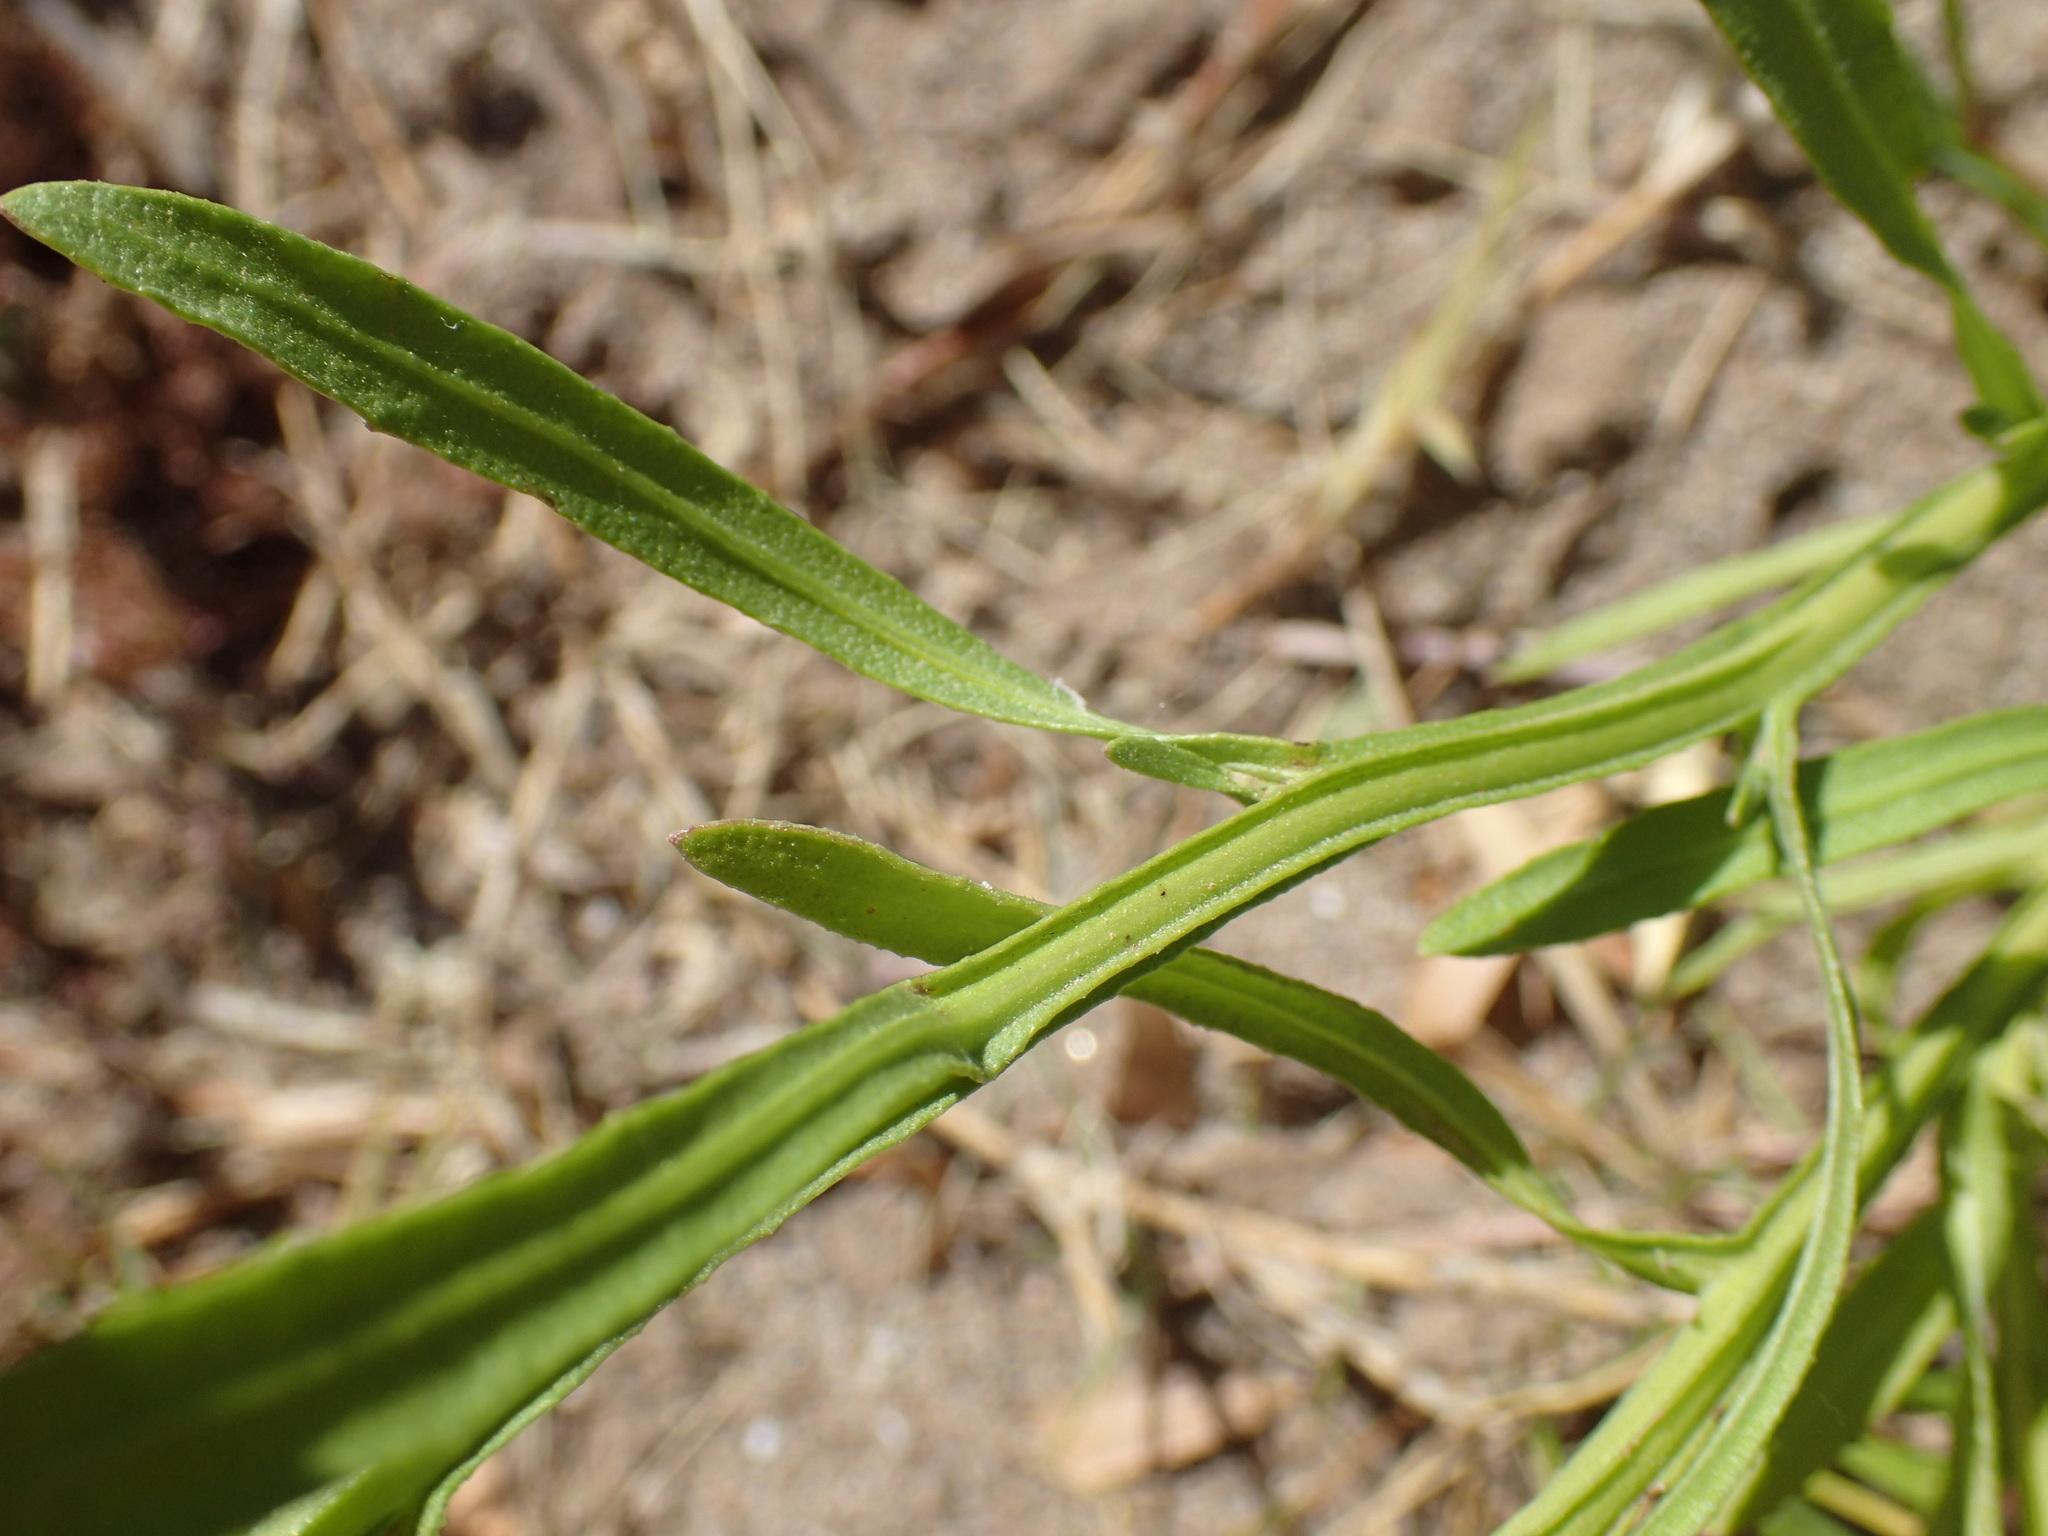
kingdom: Plantae
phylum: Tracheophyta
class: Magnoliopsida
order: Asterales
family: Asteraceae
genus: Litogyne
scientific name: Litogyne gariepina
